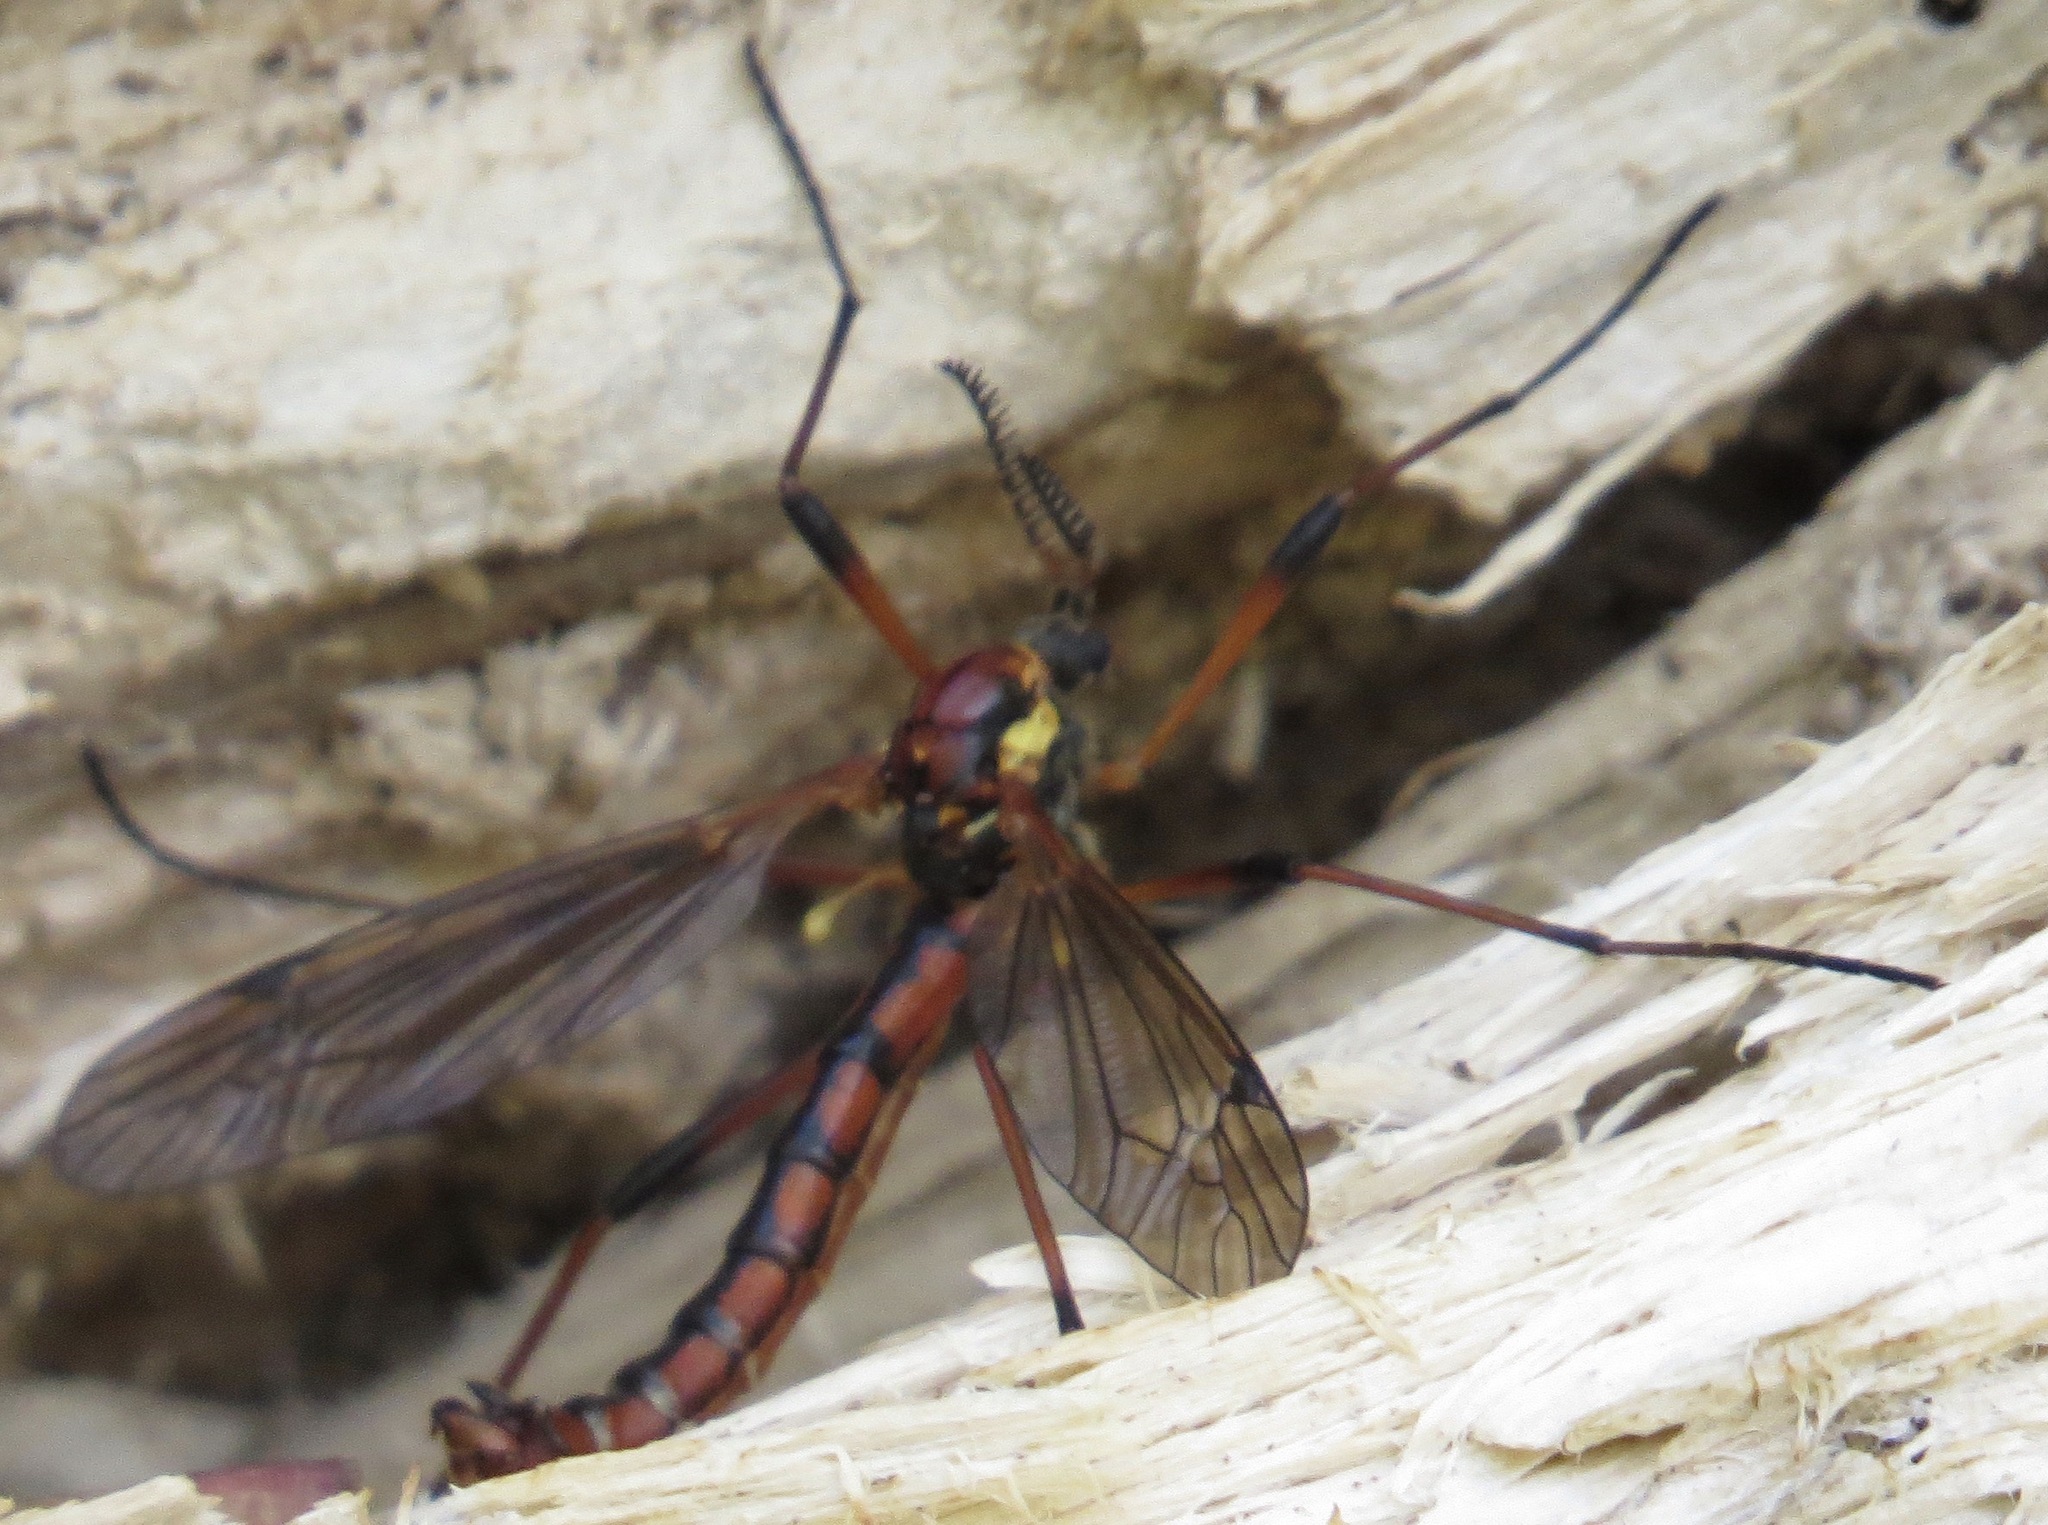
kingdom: Animalia
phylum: Arthropoda
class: Insecta
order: Diptera
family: Tipulidae
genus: Phoroctenia
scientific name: Phoroctenia vittata
